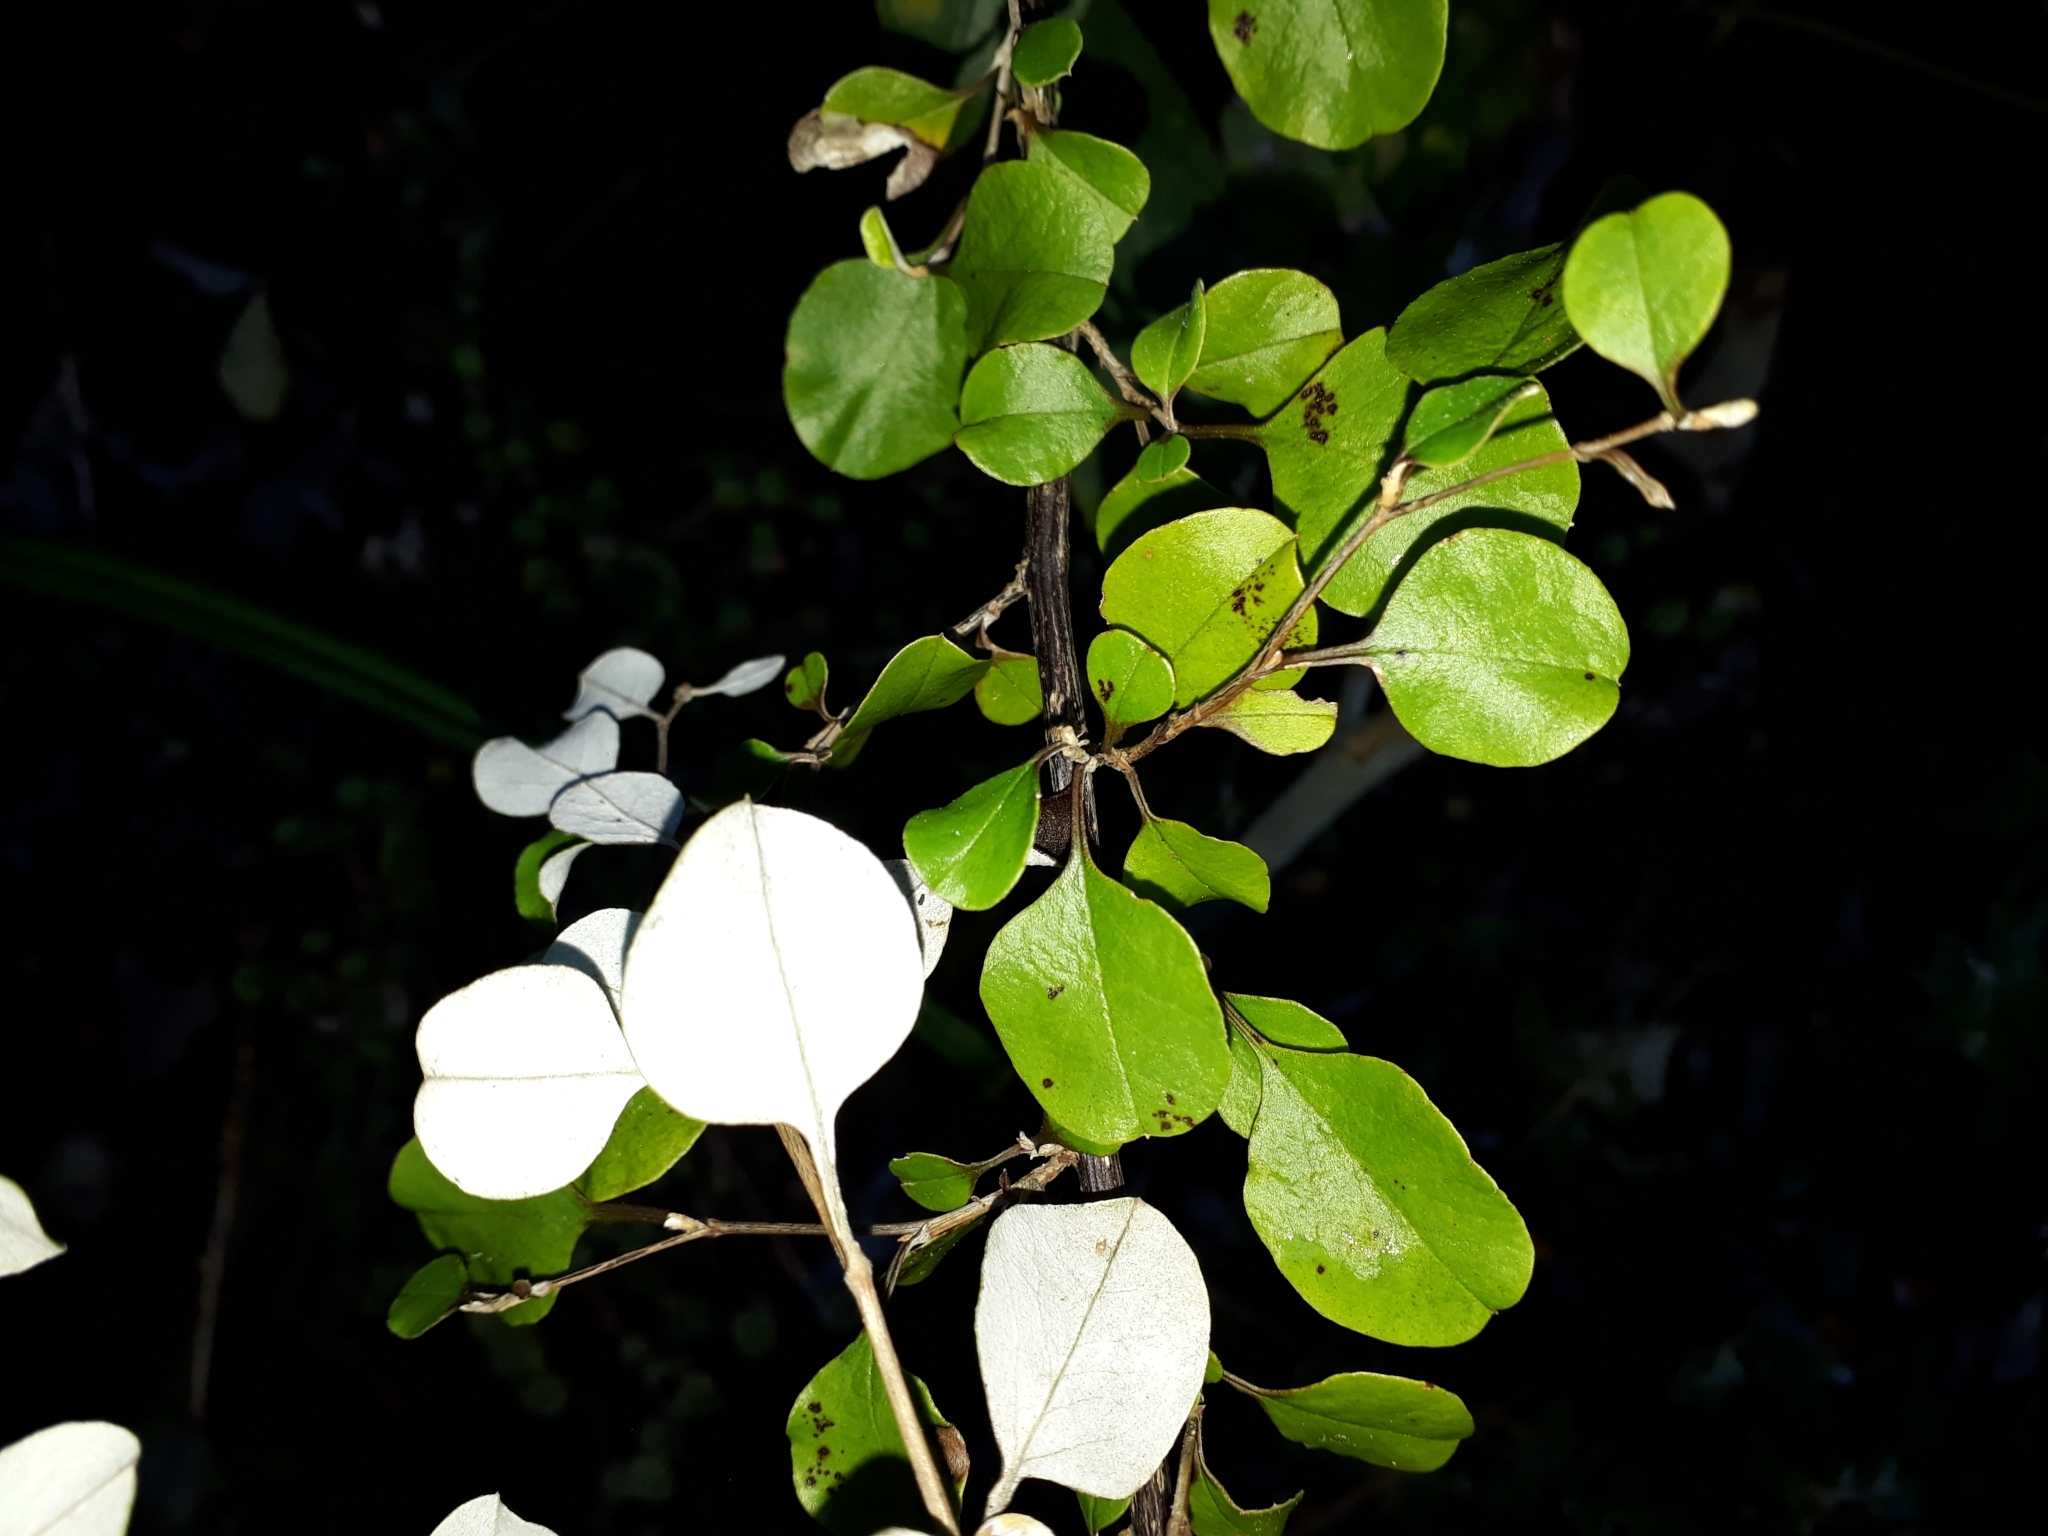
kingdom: Plantae
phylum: Tracheophyta
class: Magnoliopsida
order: Asterales
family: Asteraceae
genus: Ozothamnus
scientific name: Ozothamnus glomeratus
